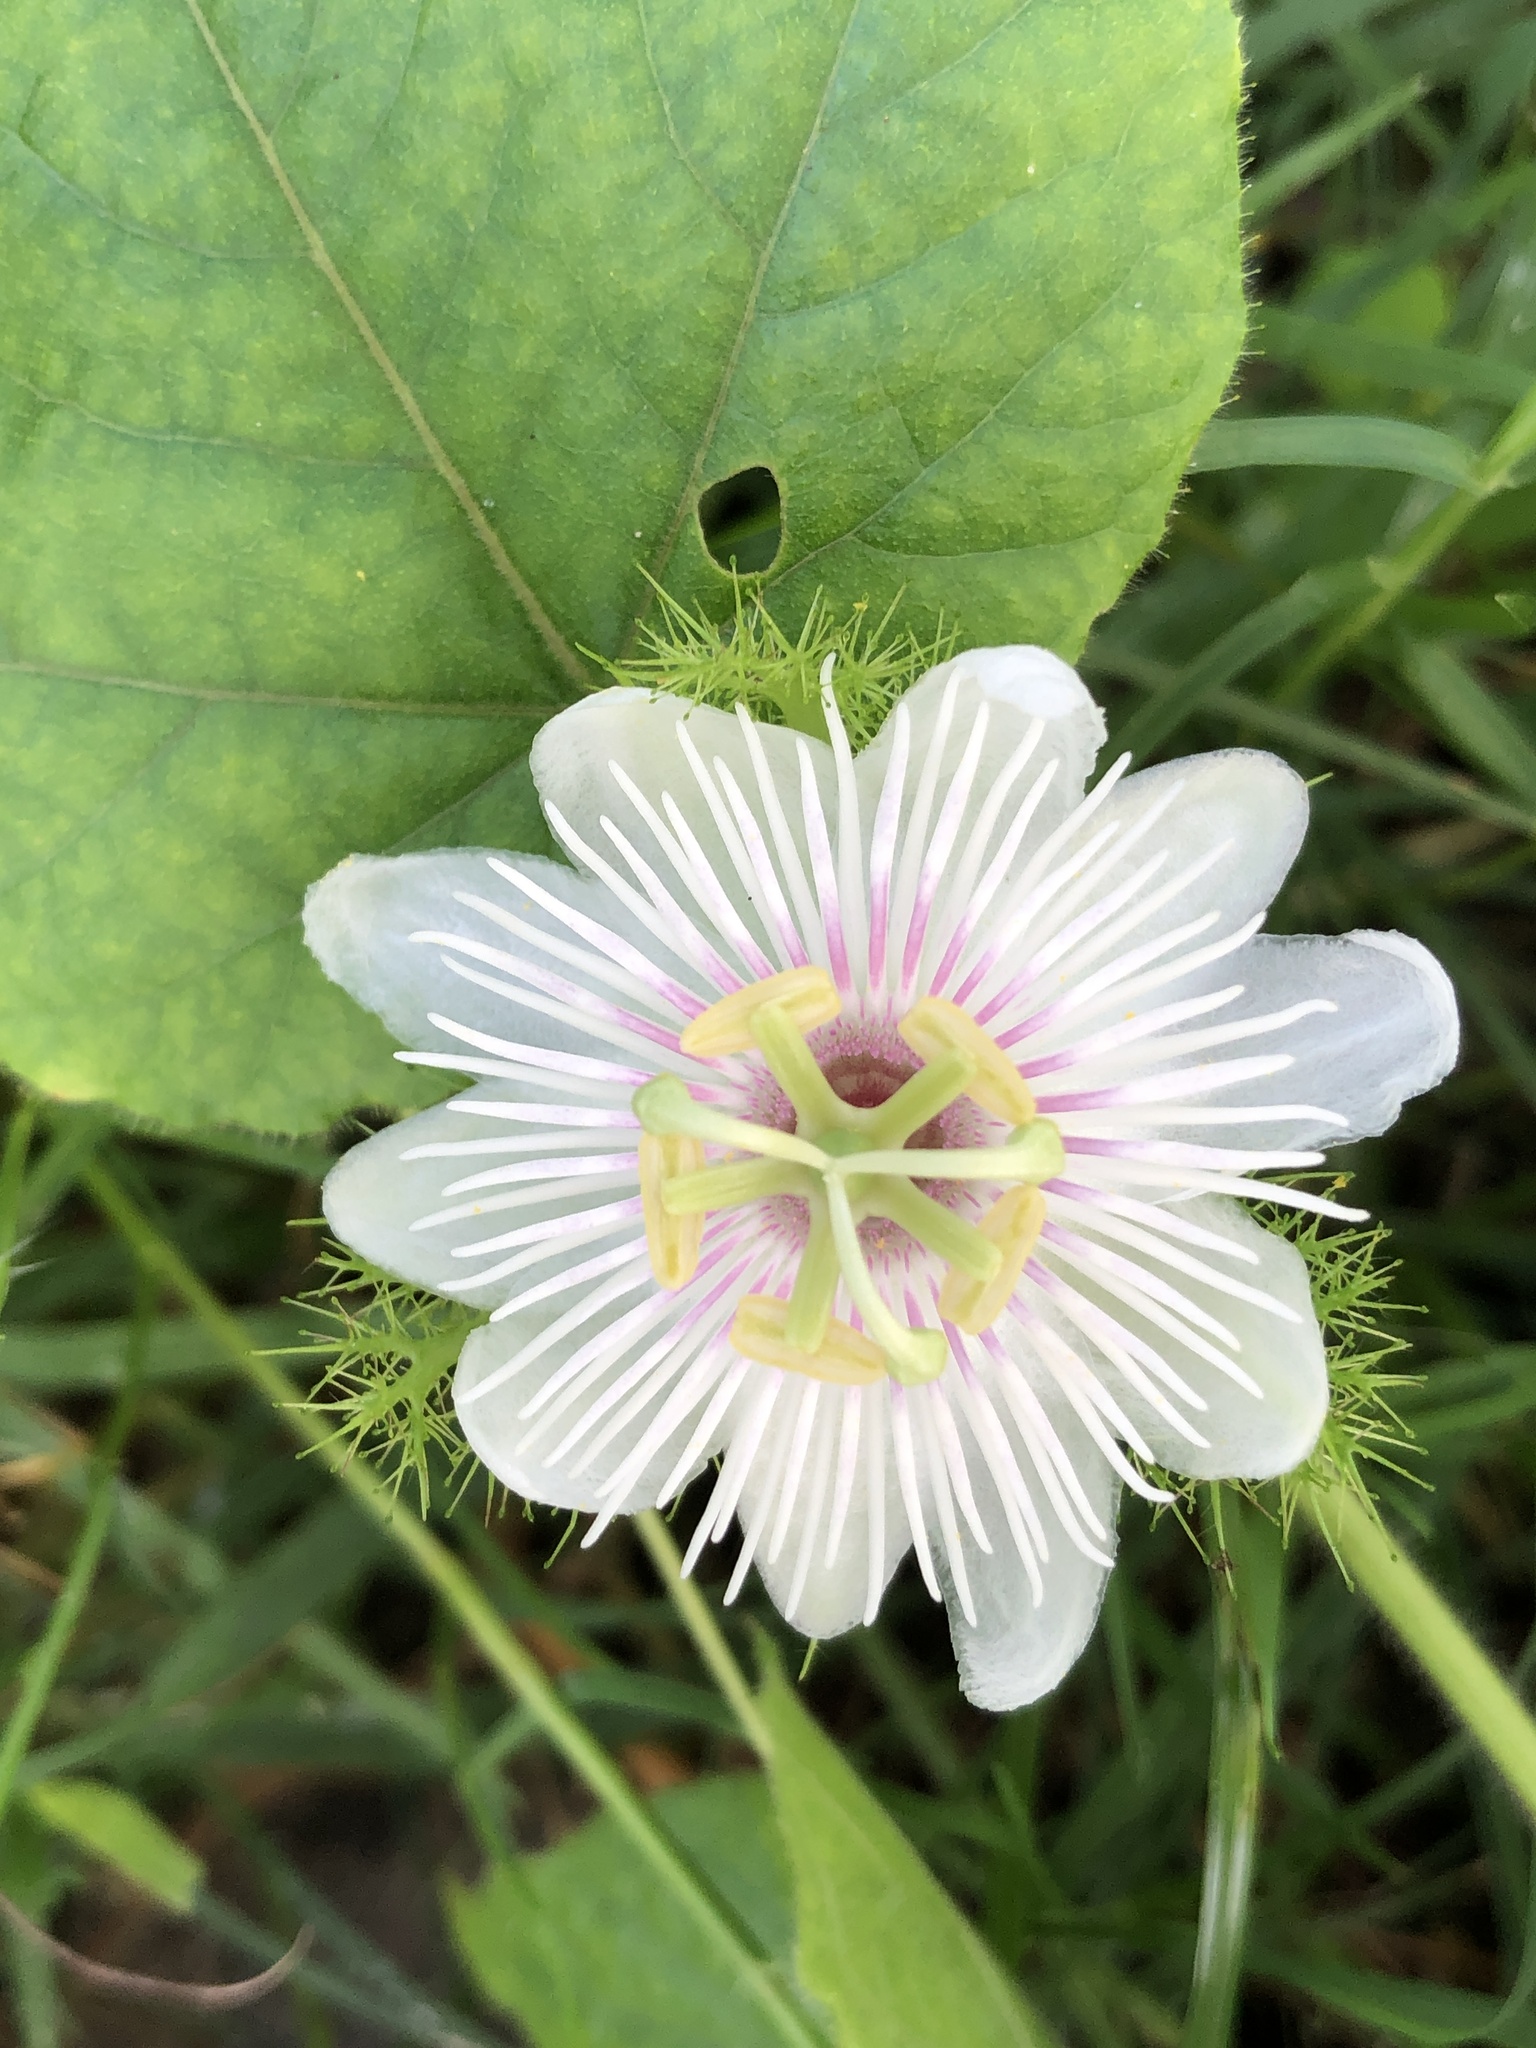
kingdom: Plantae
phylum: Tracheophyta
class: Magnoliopsida
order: Malpighiales
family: Passifloraceae
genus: Passiflora
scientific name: Passiflora vesicaria
